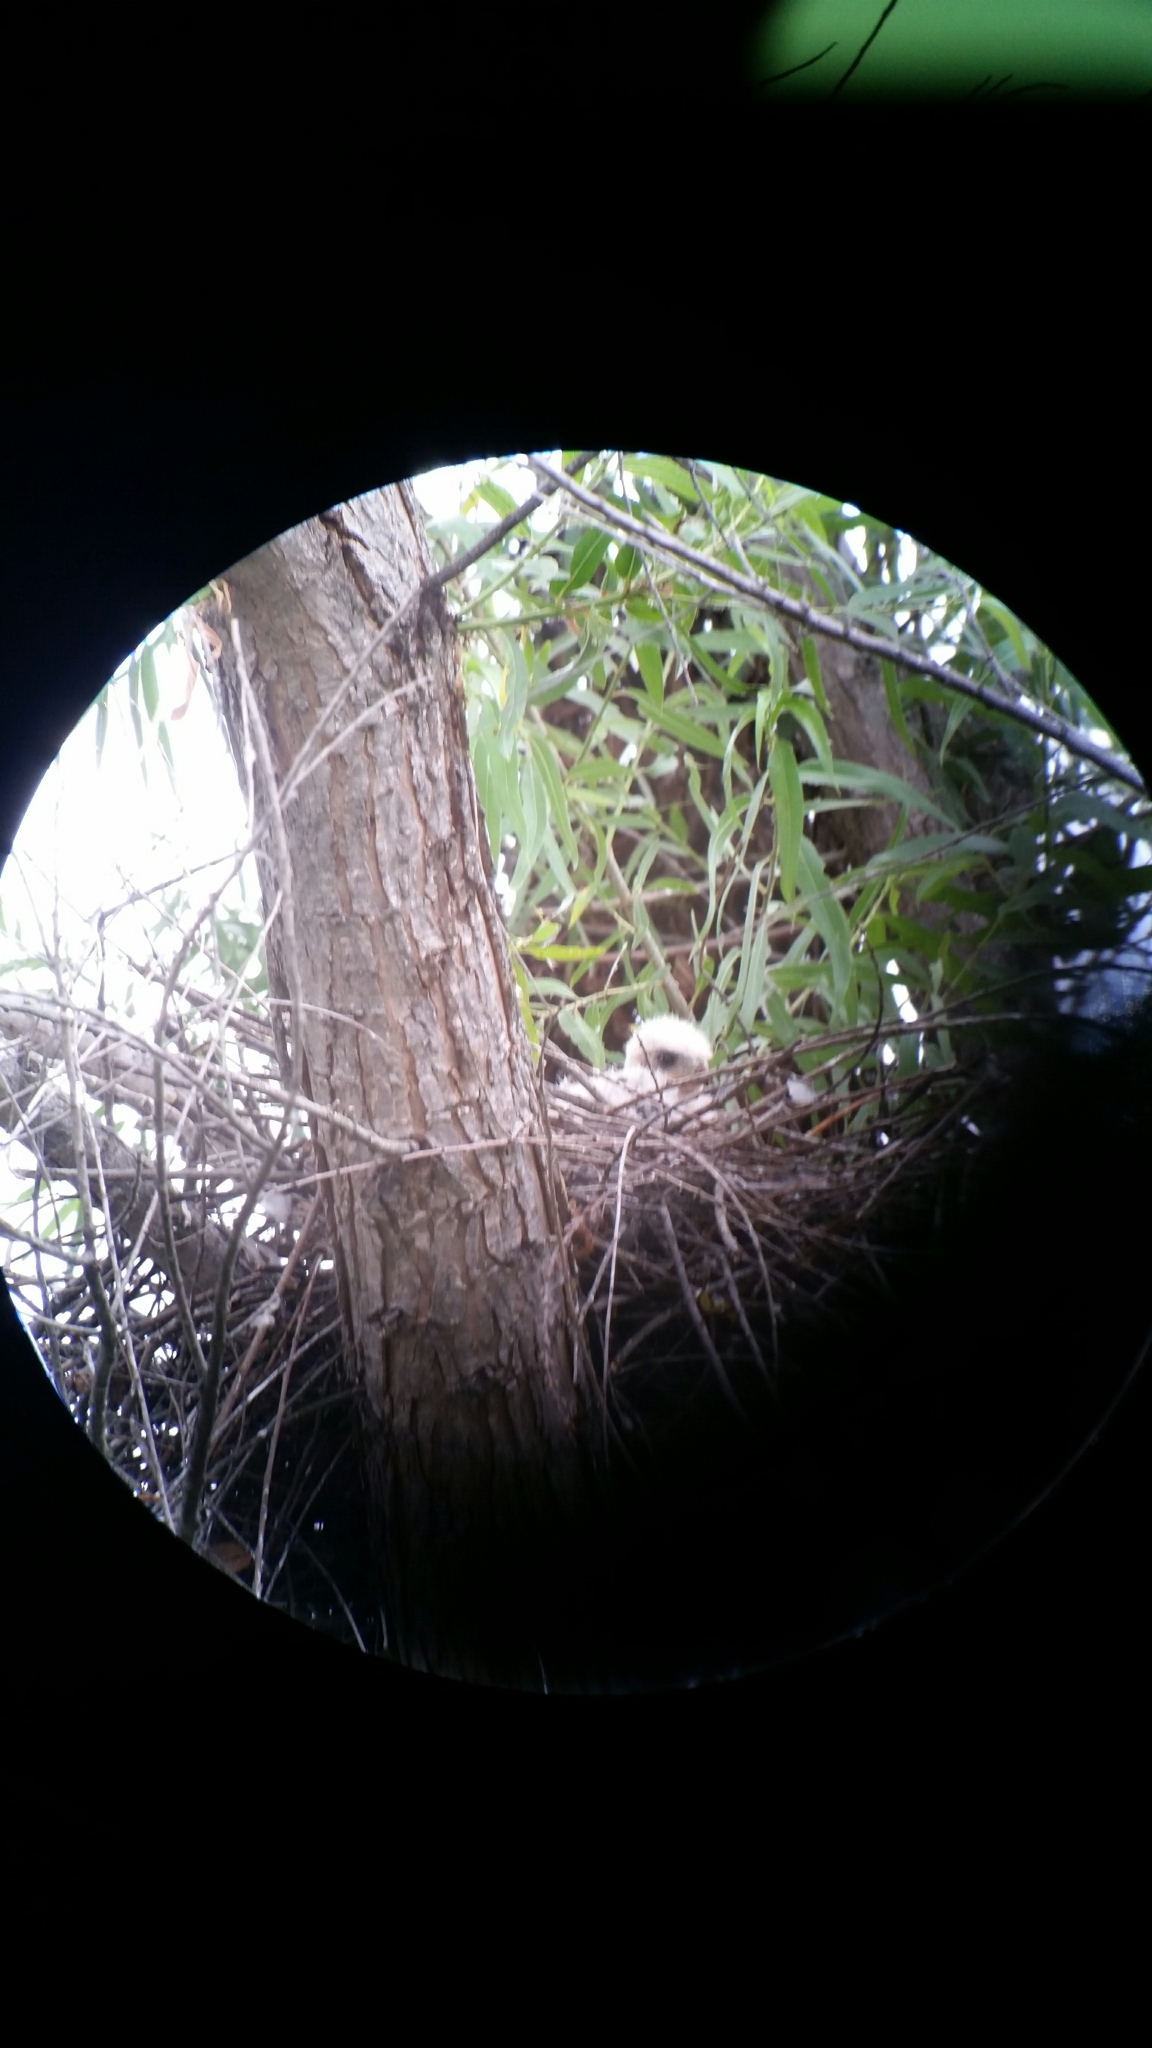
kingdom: Animalia
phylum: Chordata
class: Aves
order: Accipitriformes
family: Accipitridae
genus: Accipiter
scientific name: Accipiter cooperii
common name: Cooper's hawk
